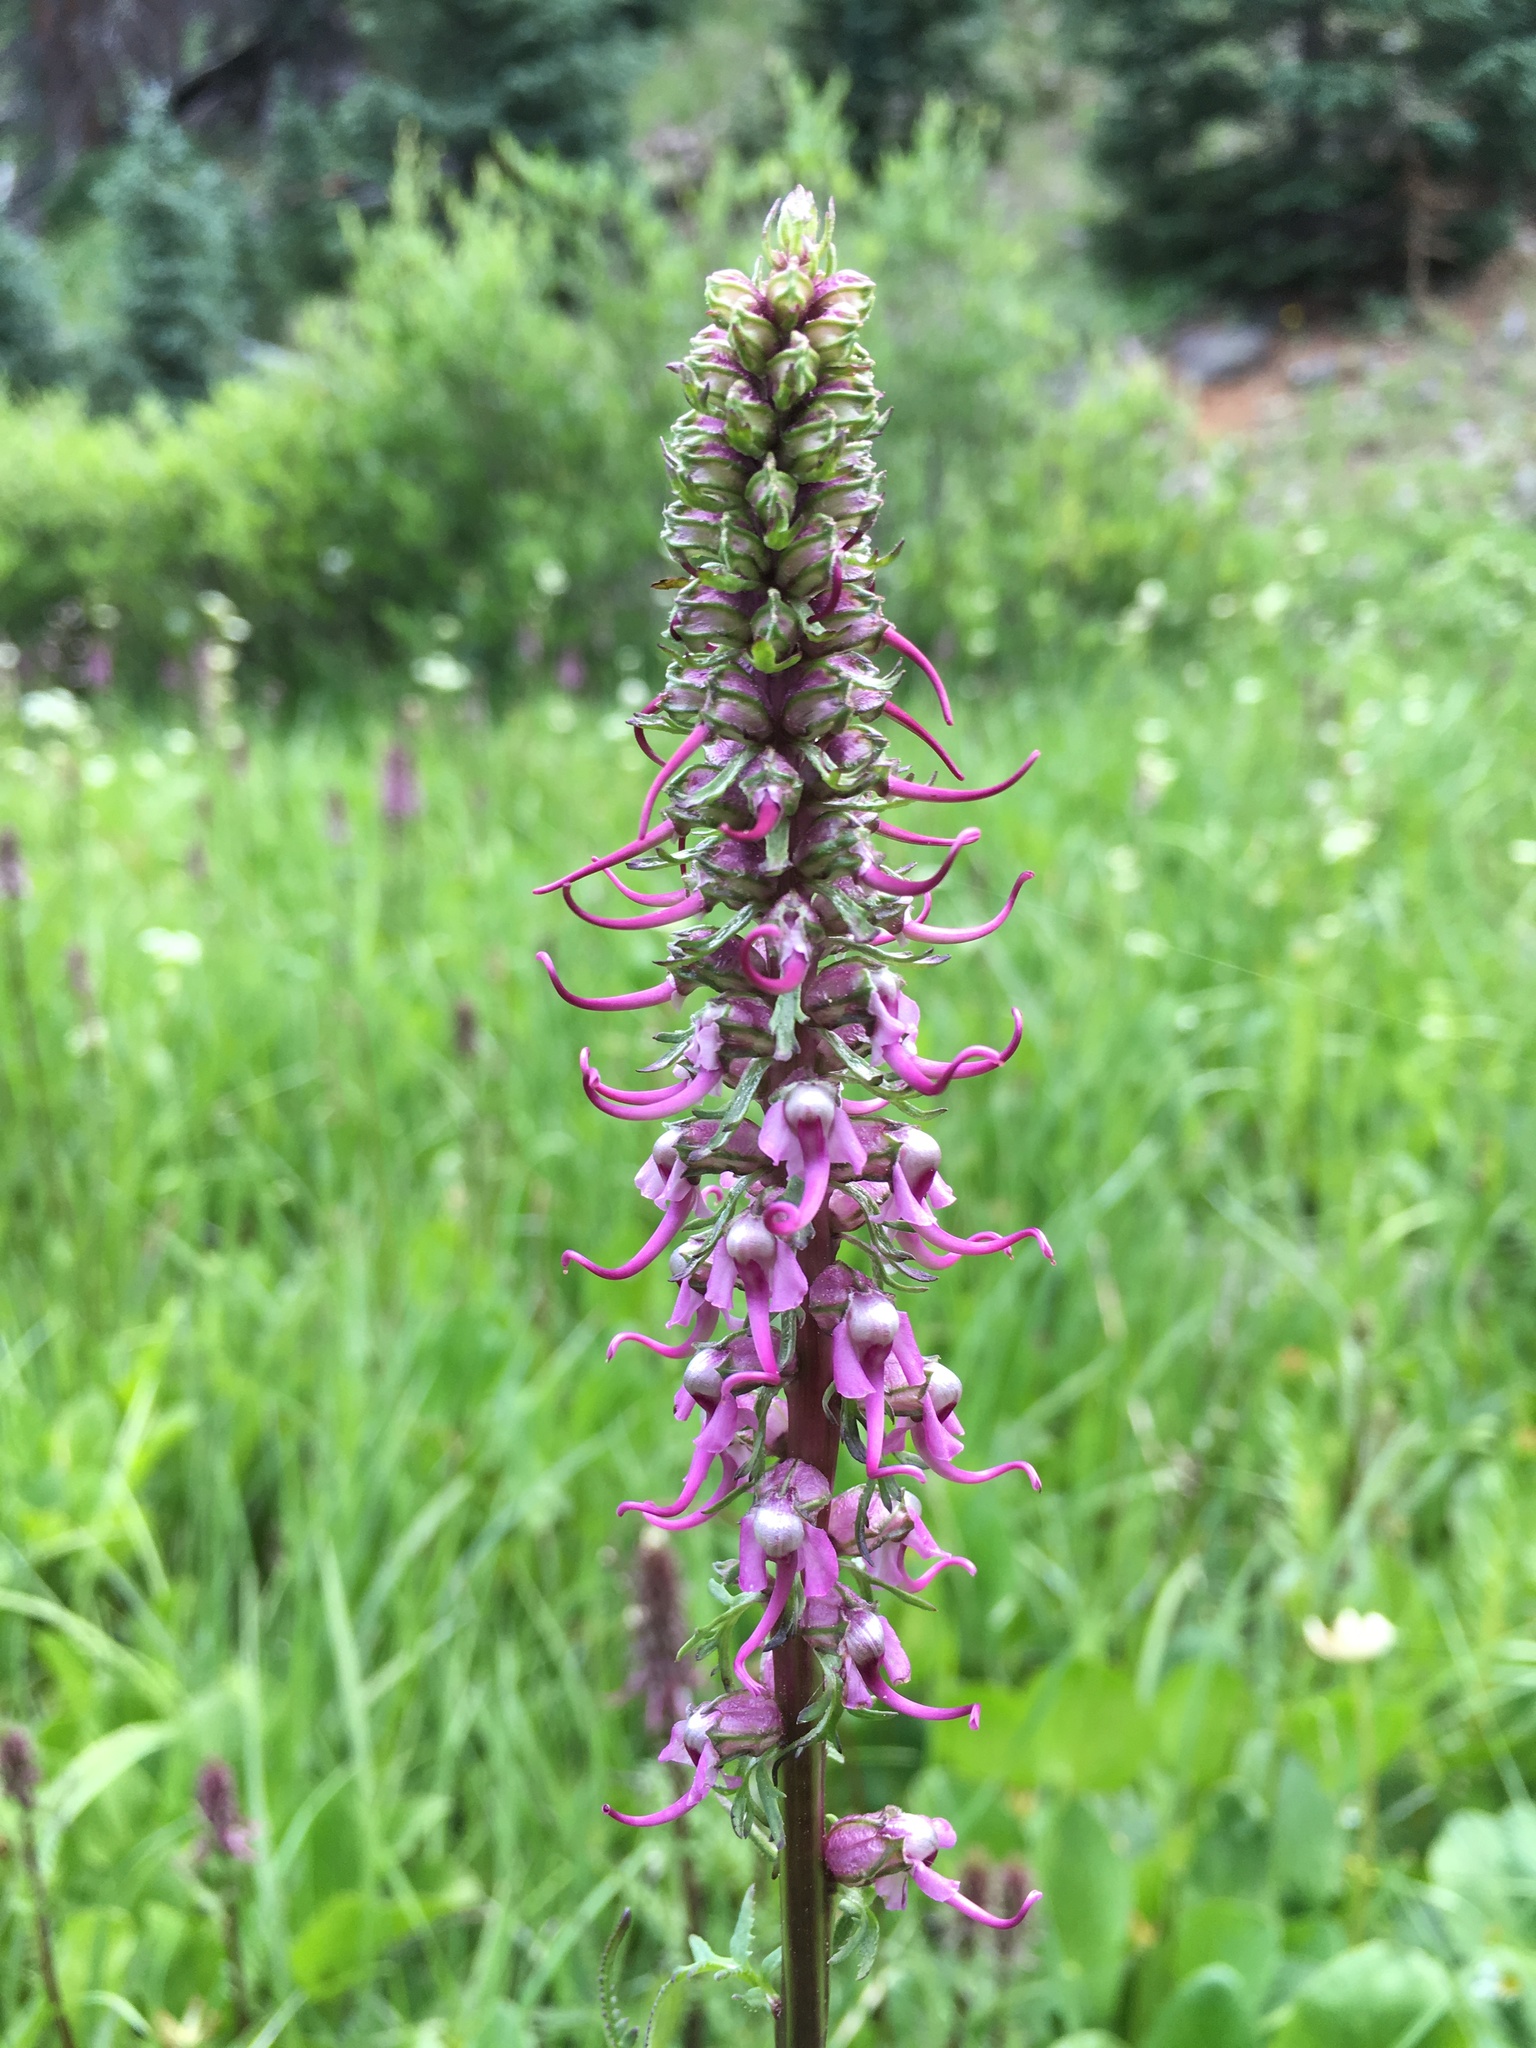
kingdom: Plantae
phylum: Tracheophyta
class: Magnoliopsida
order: Lamiales
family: Orobanchaceae
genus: Pedicularis
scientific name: Pedicularis groenlandica
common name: Elephant's-head
